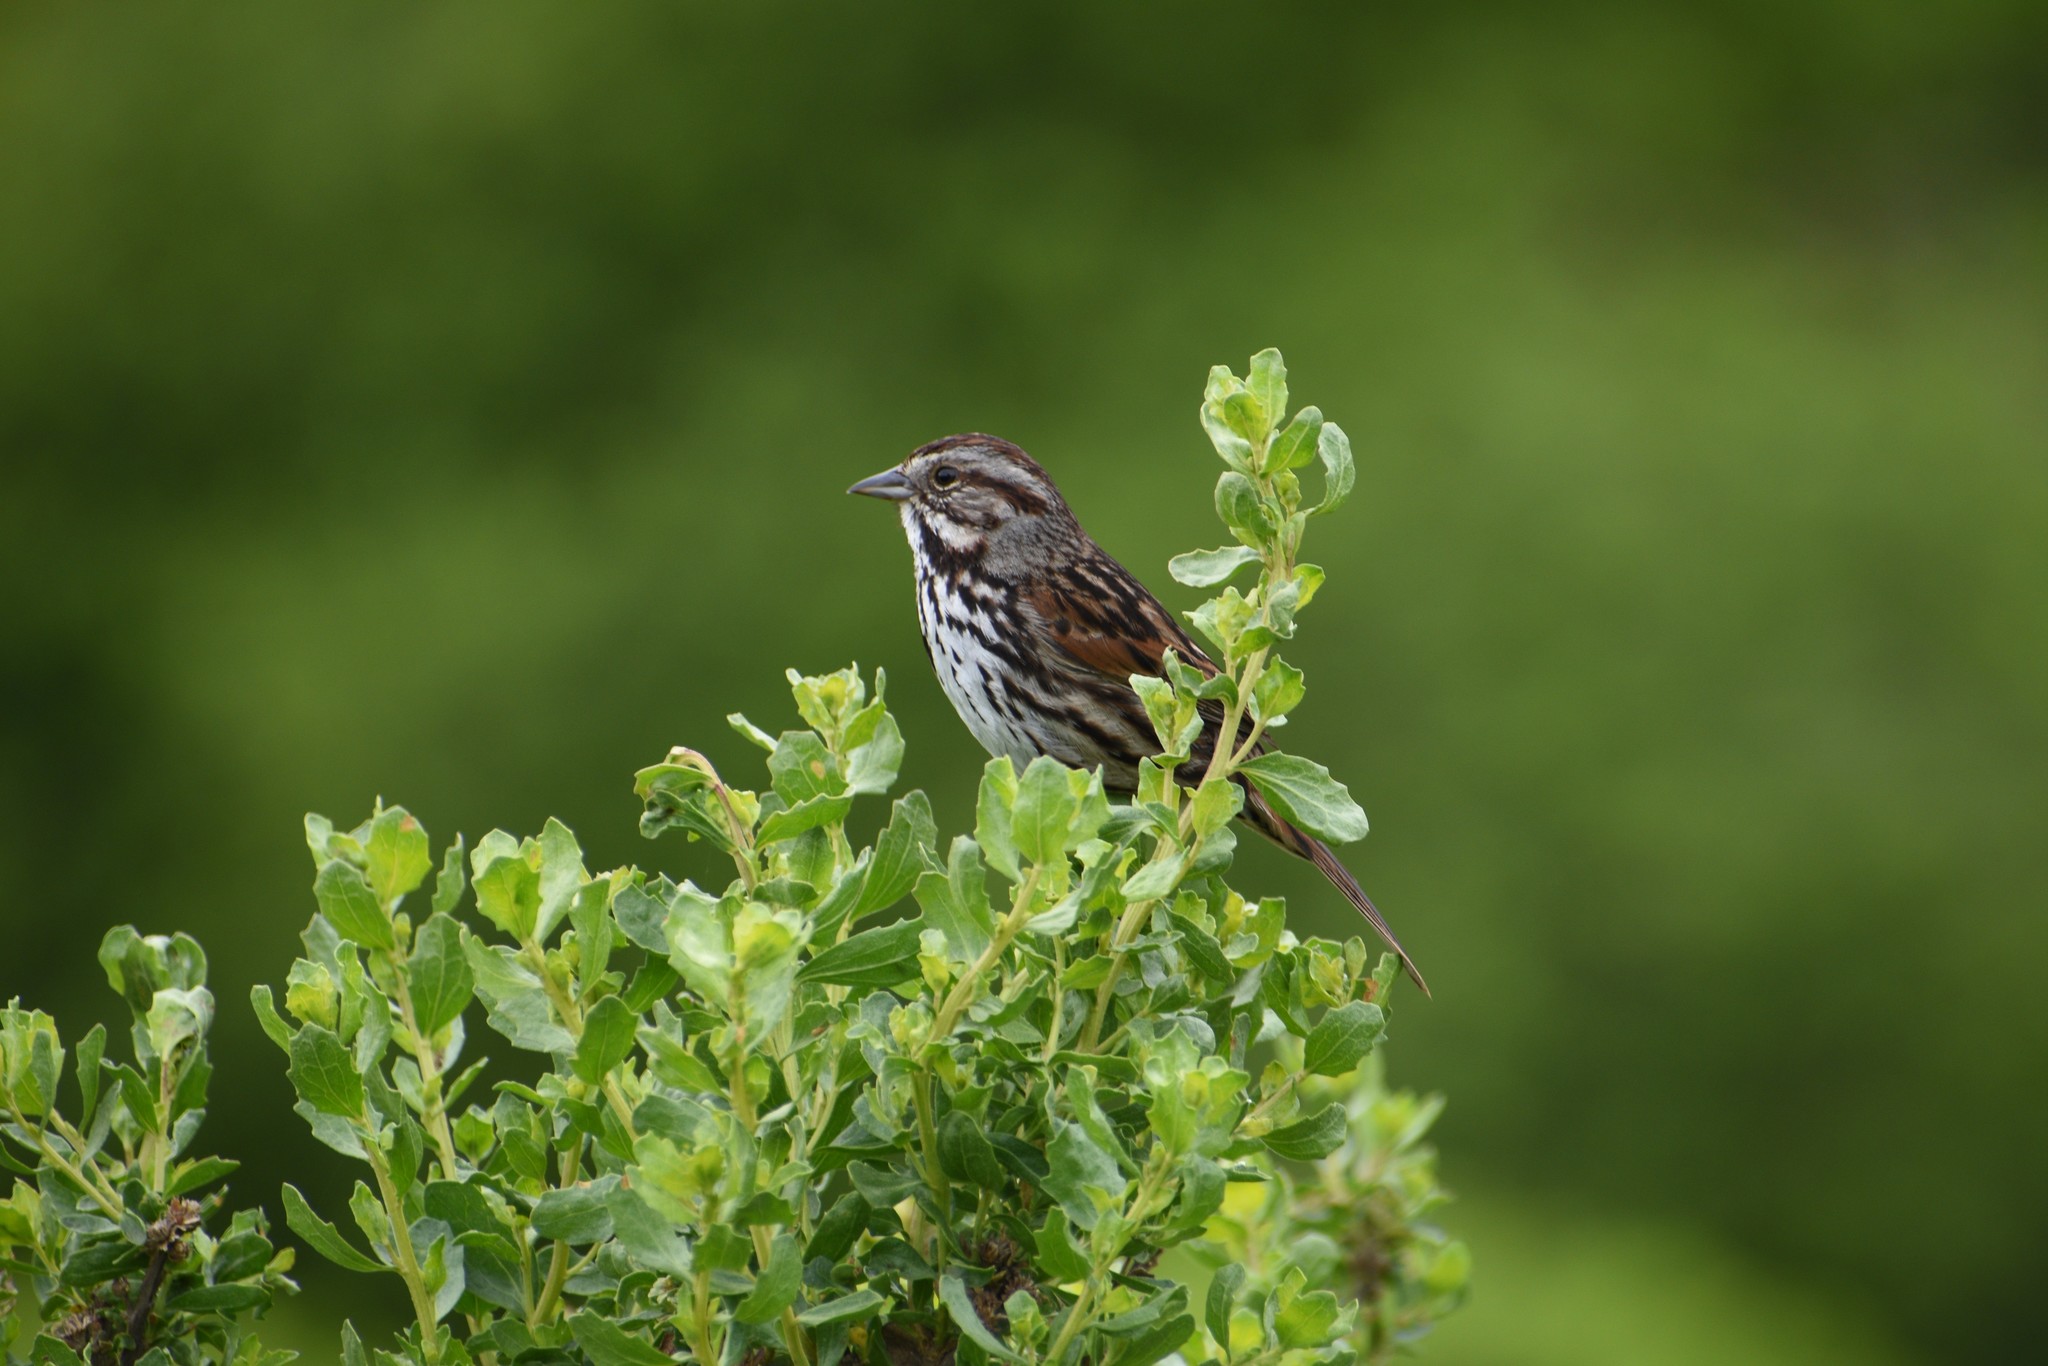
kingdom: Animalia
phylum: Chordata
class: Aves
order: Passeriformes
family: Passerellidae
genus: Melospiza
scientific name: Melospiza melodia
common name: Song sparrow
